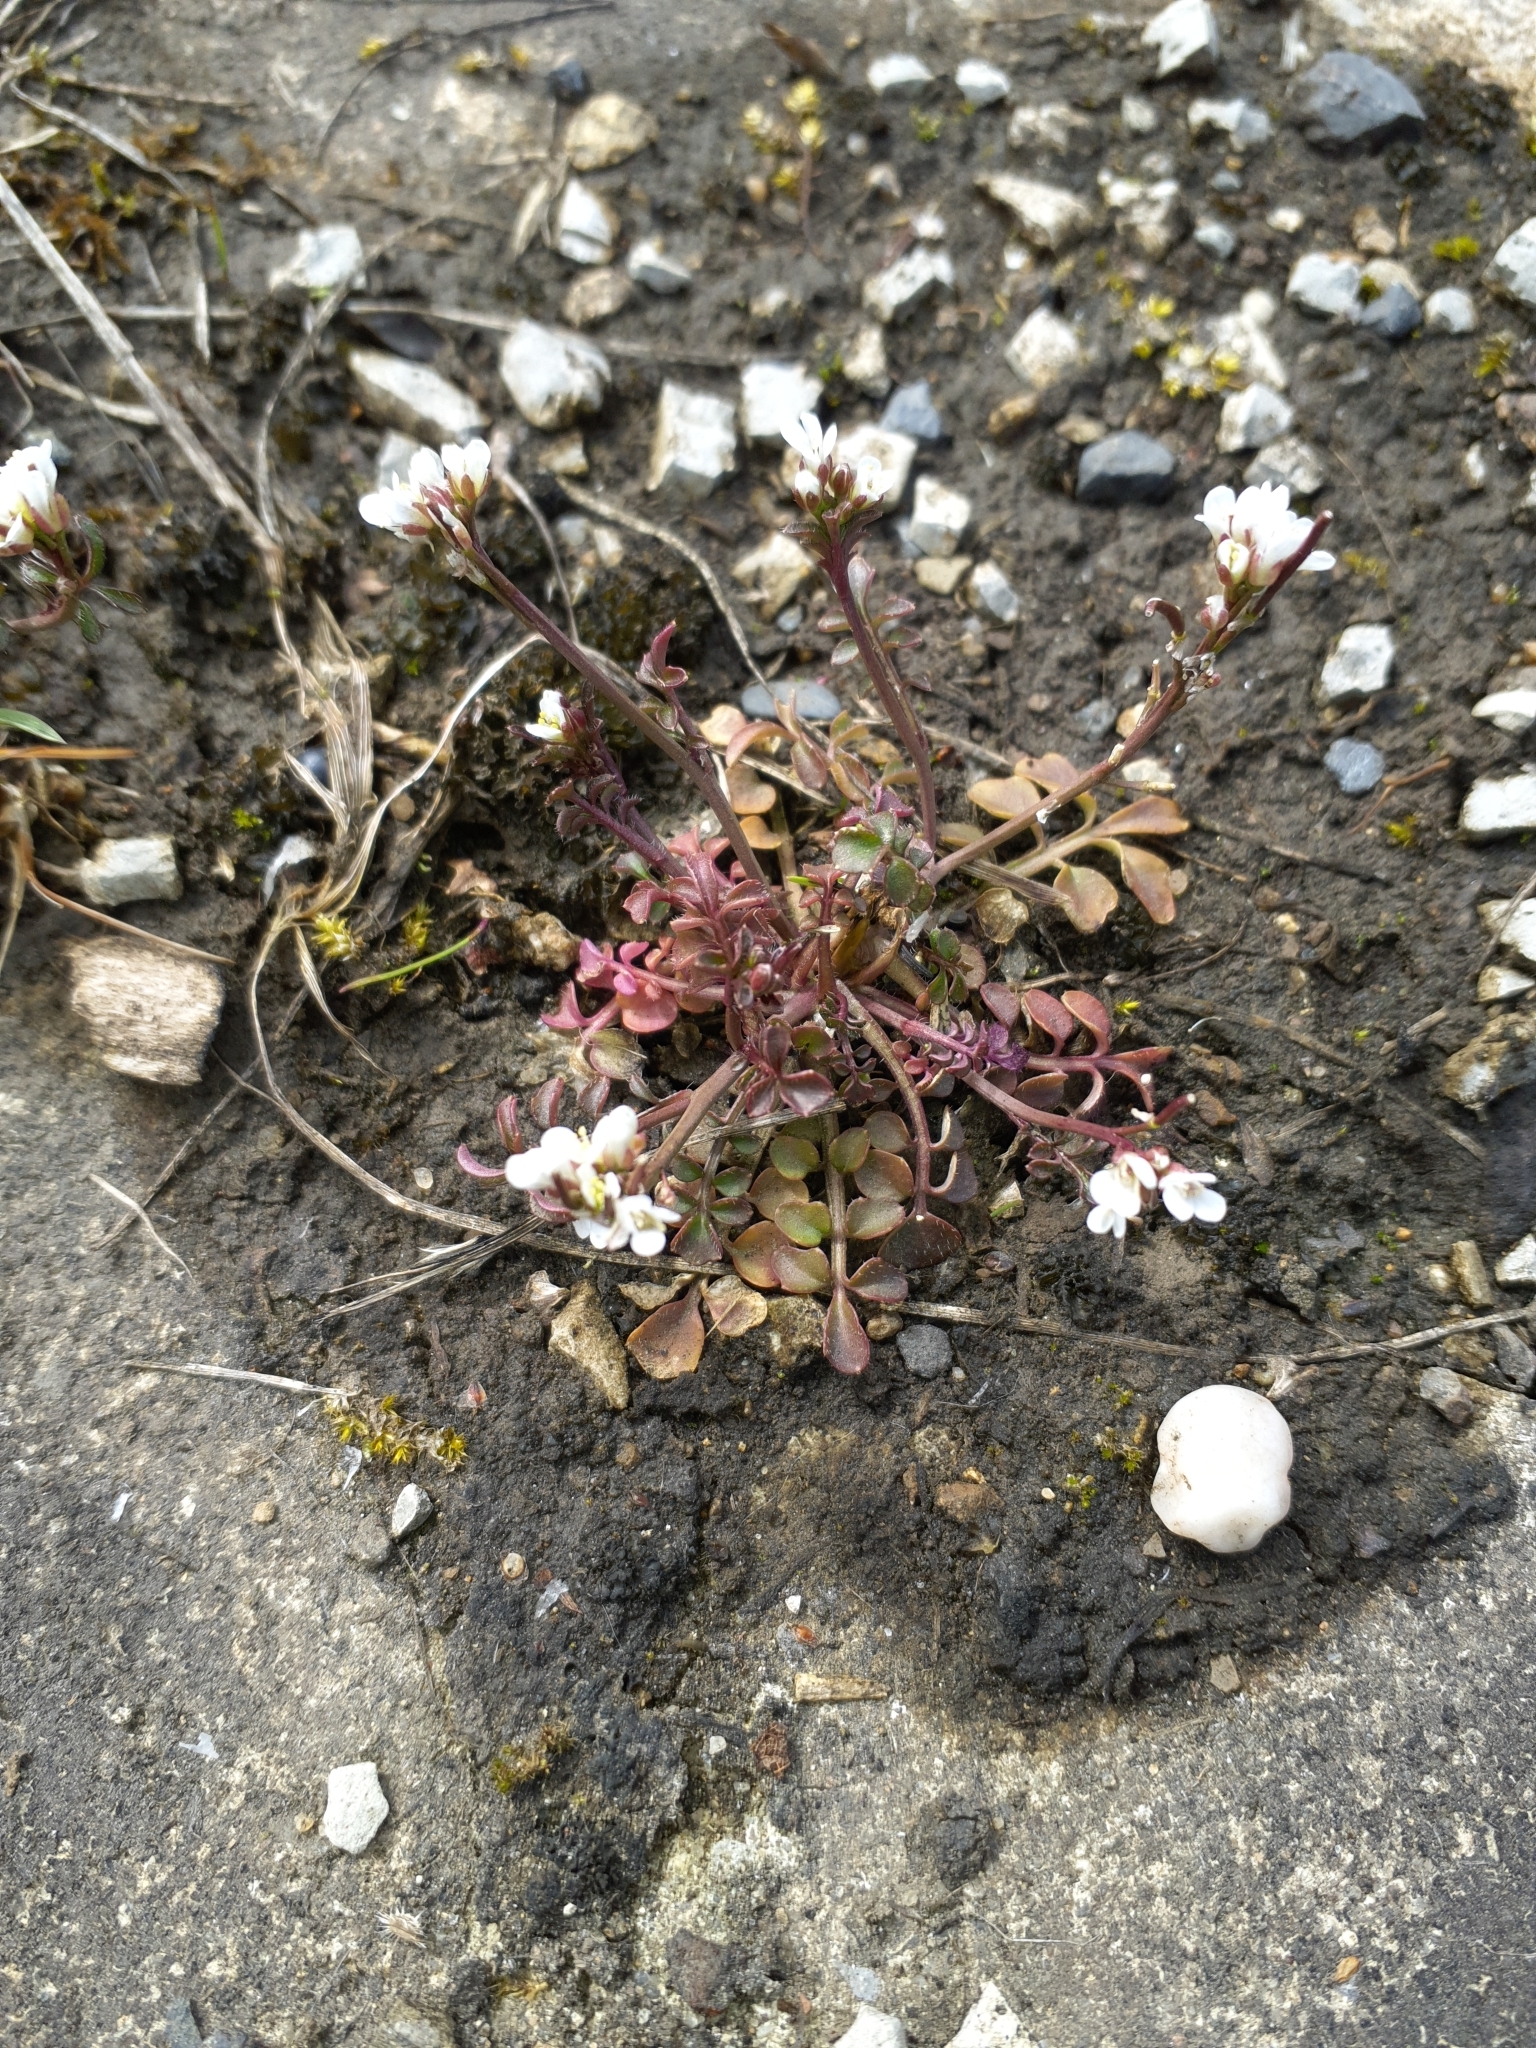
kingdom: Plantae
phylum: Tracheophyta
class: Magnoliopsida
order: Brassicales
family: Brassicaceae
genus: Cardamine
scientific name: Cardamine hirsuta
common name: Hairy bittercress
